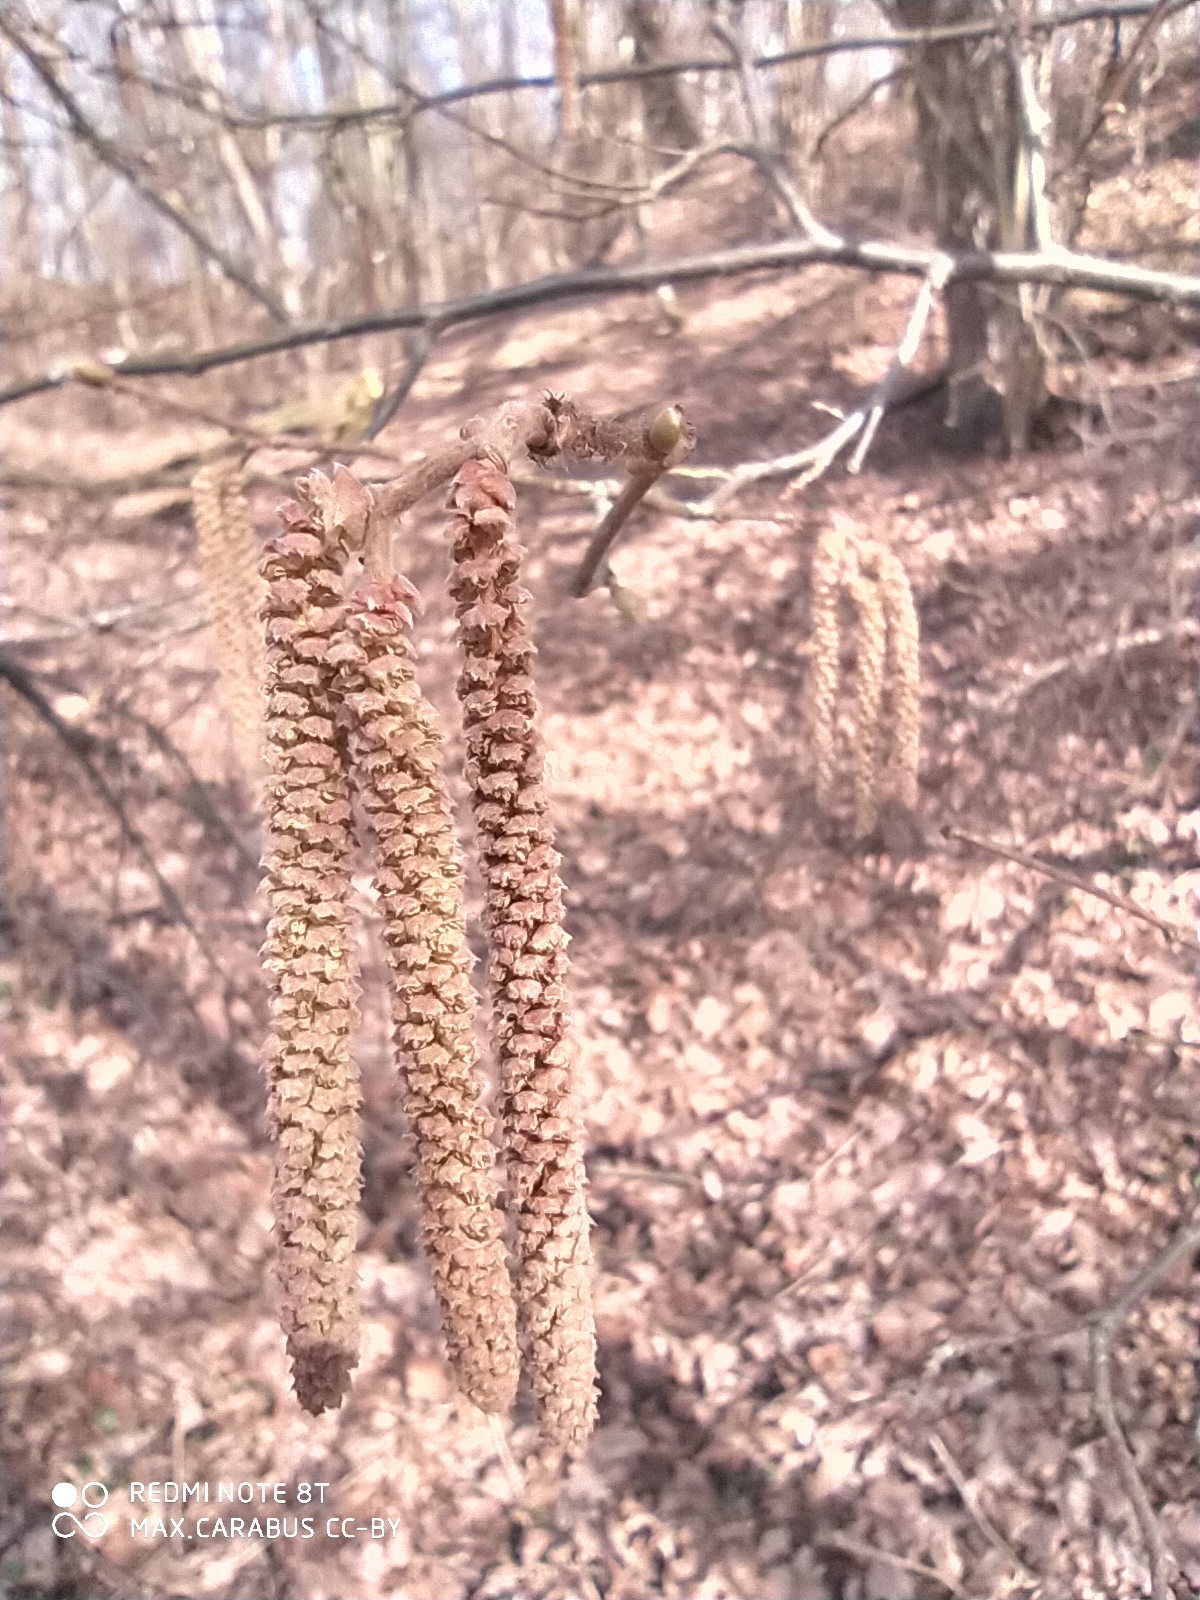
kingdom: Plantae
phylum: Tracheophyta
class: Magnoliopsida
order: Fagales
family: Betulaceae
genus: Corylus
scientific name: Corylus avellana
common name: European hazel
